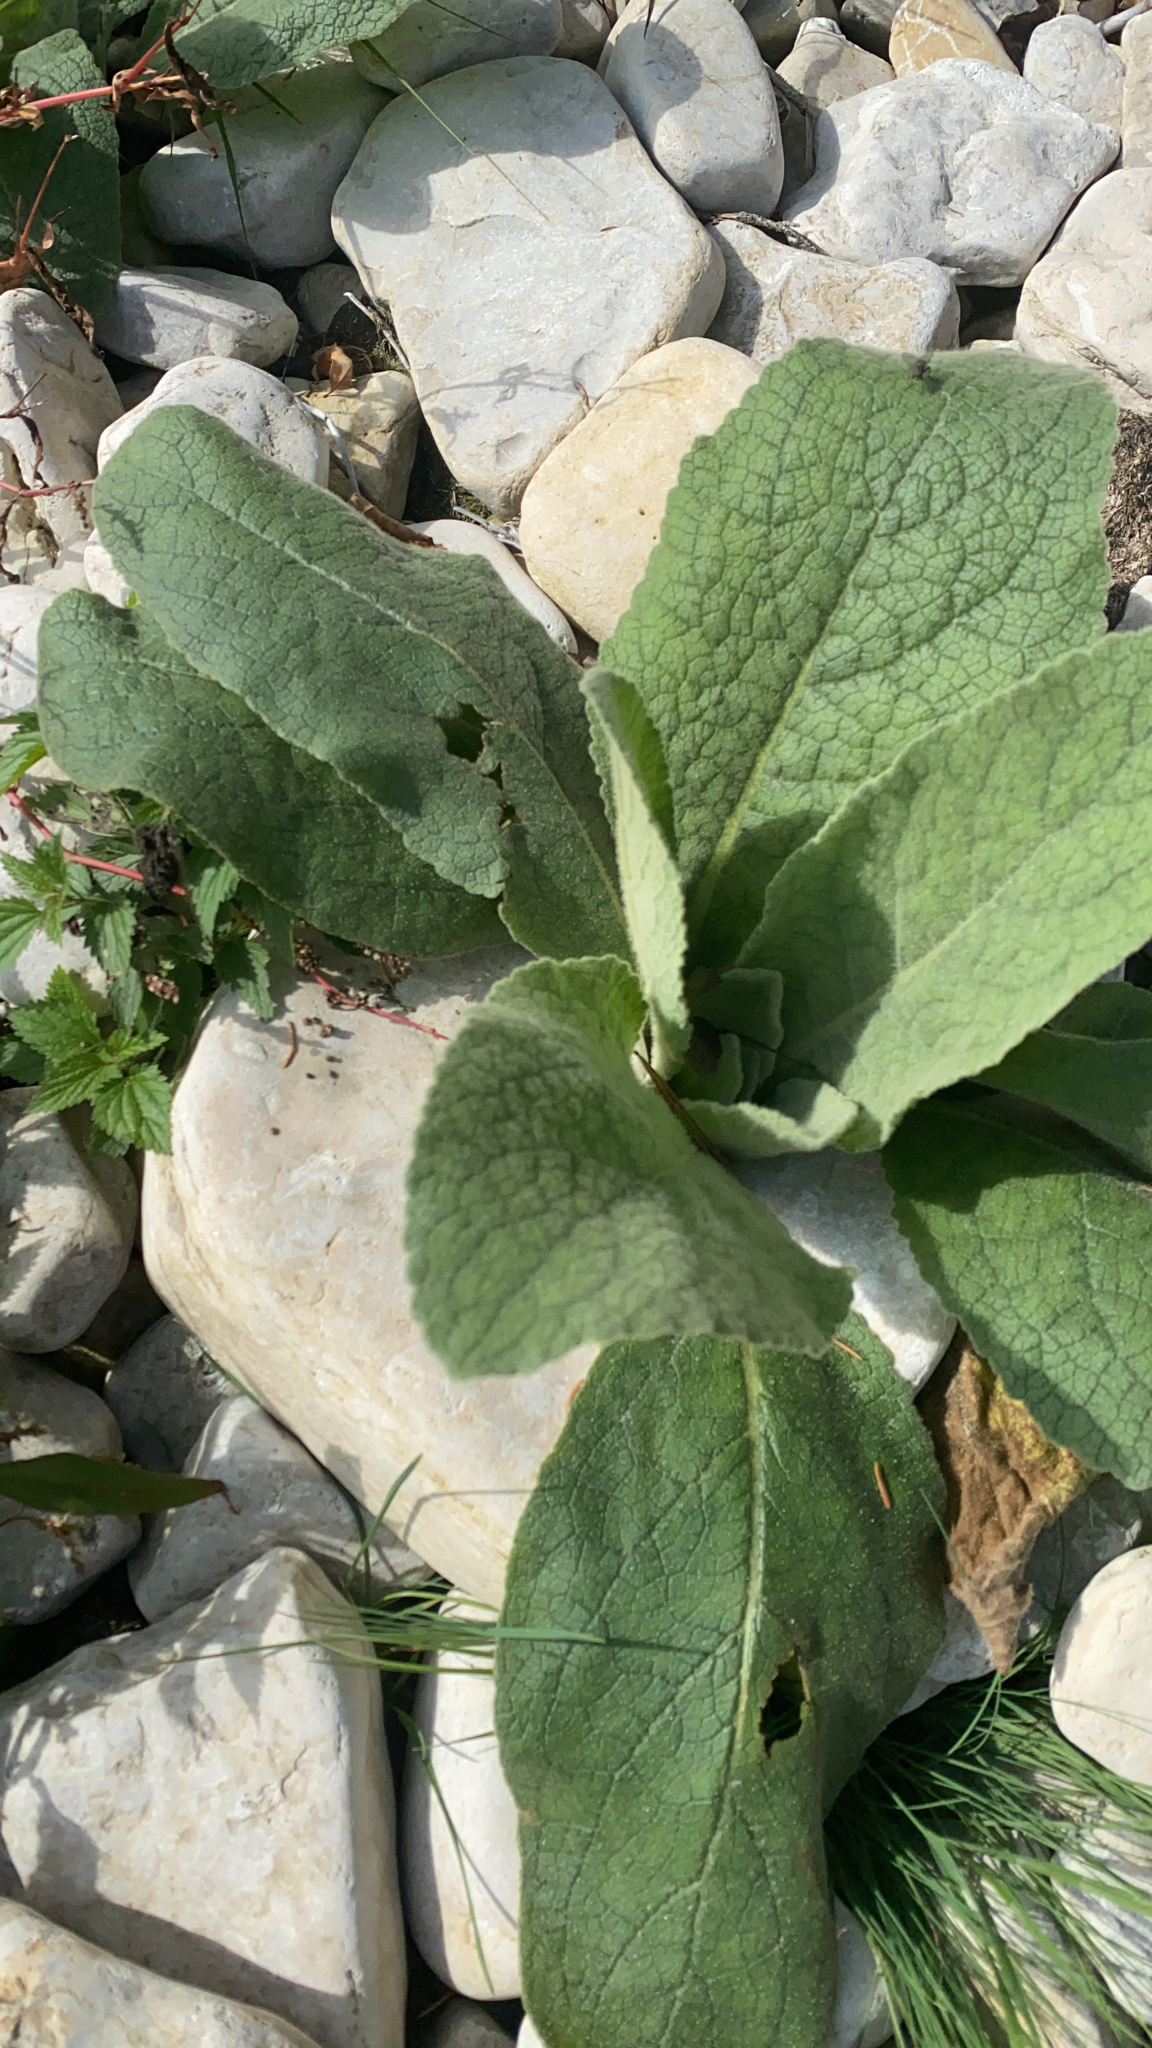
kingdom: Plantae
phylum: Tracheophyta
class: Magnoliopsida
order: Lamiales
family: Scrophulariaceae
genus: Verbascum
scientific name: Verbascum thapsus
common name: Common mullein
